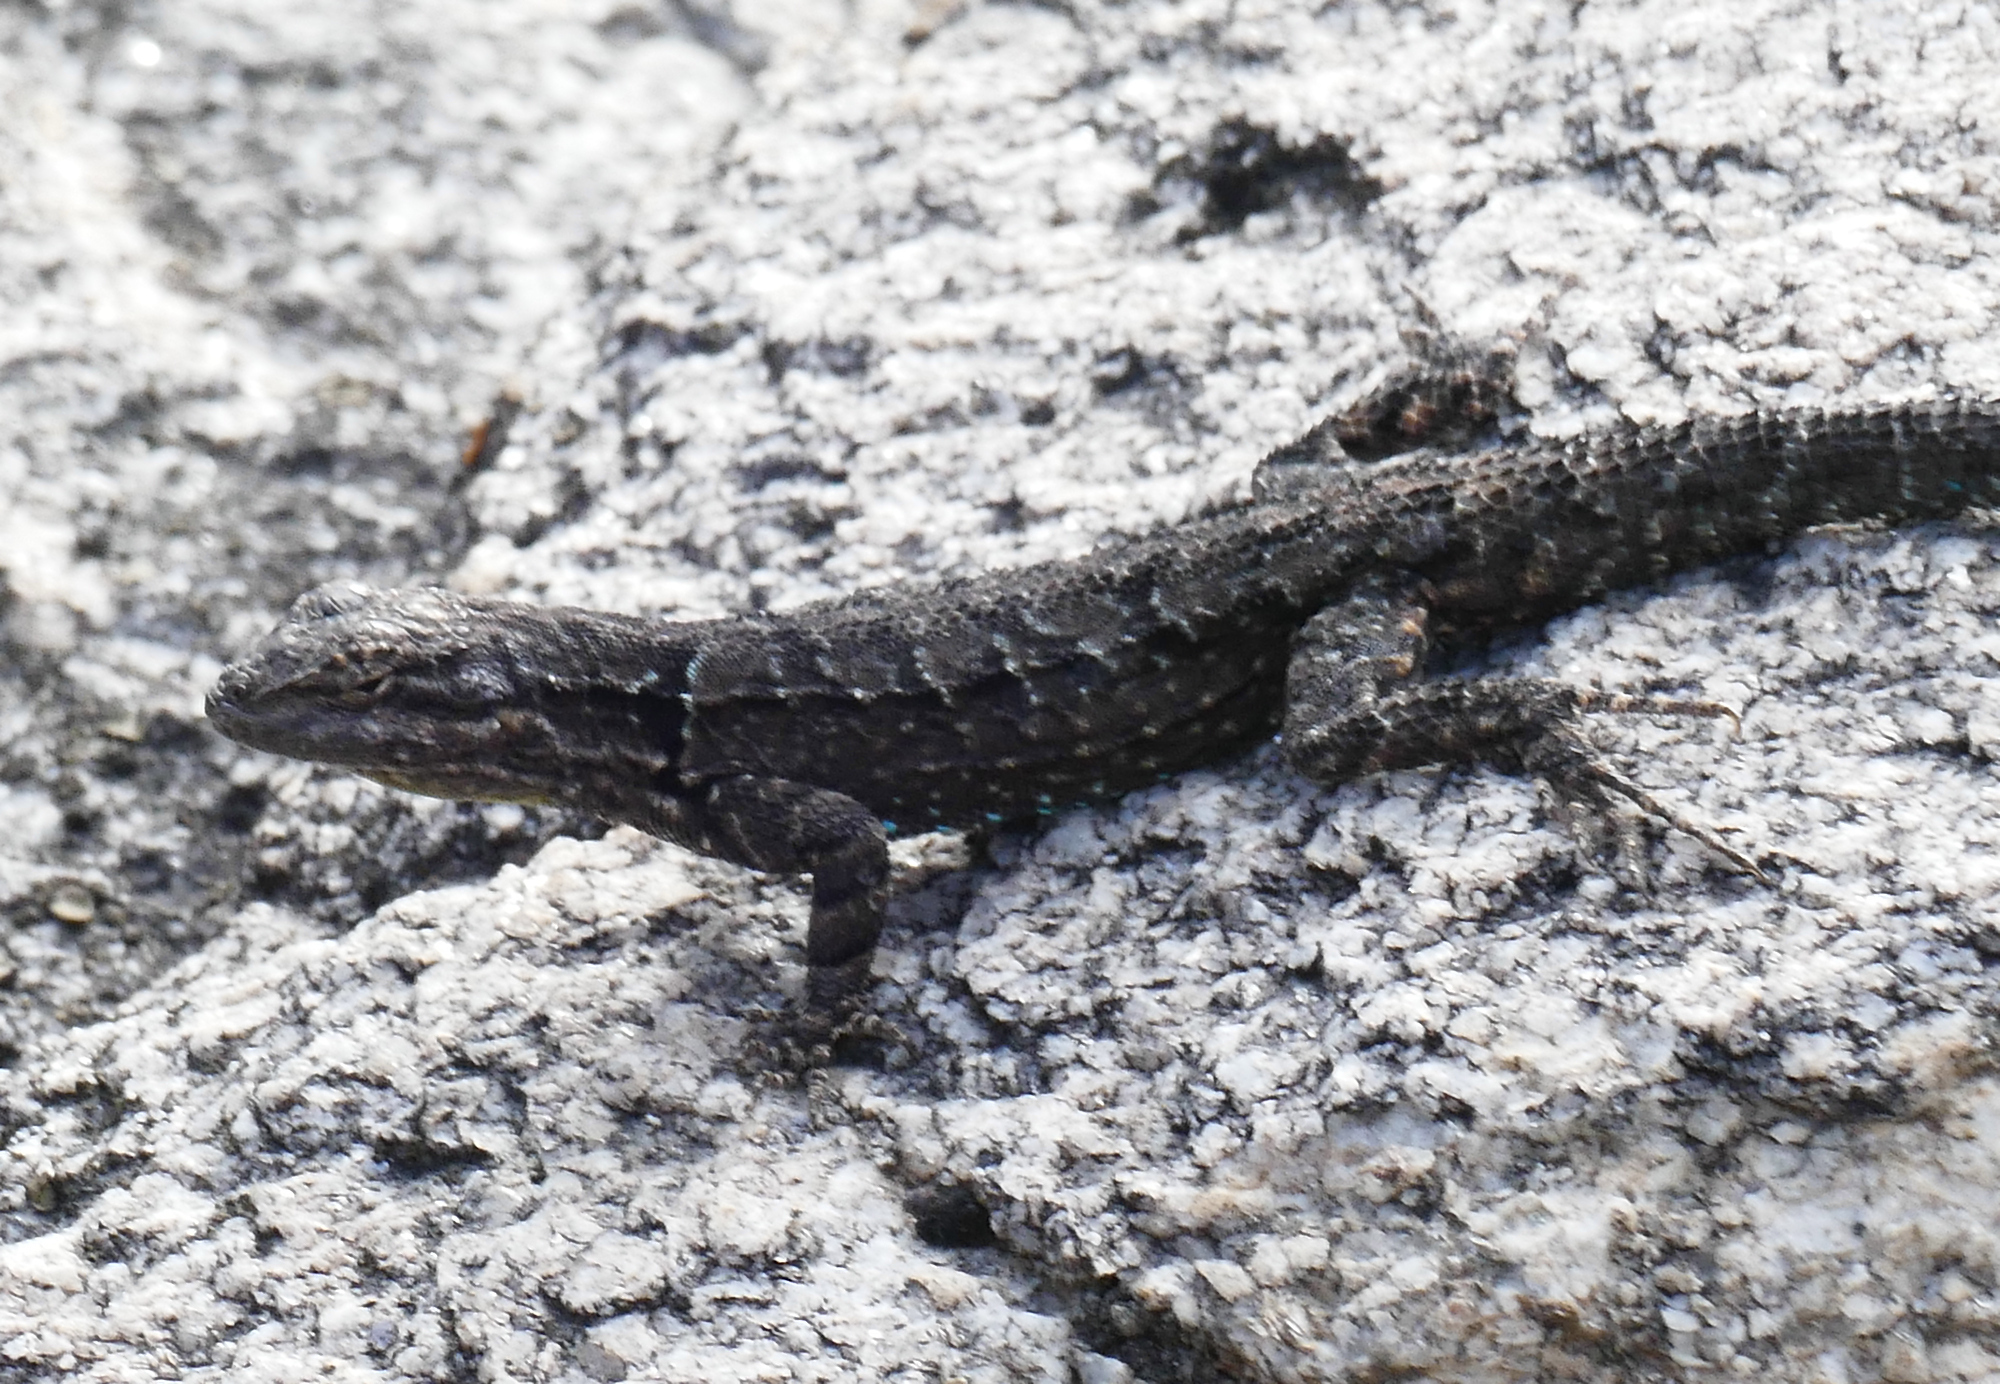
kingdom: Animalia
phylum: Chordata
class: Squamata
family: Phrynosomatidae
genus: Urosaurus
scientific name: Urosaurus ornatus
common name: Ornate tree lizard
